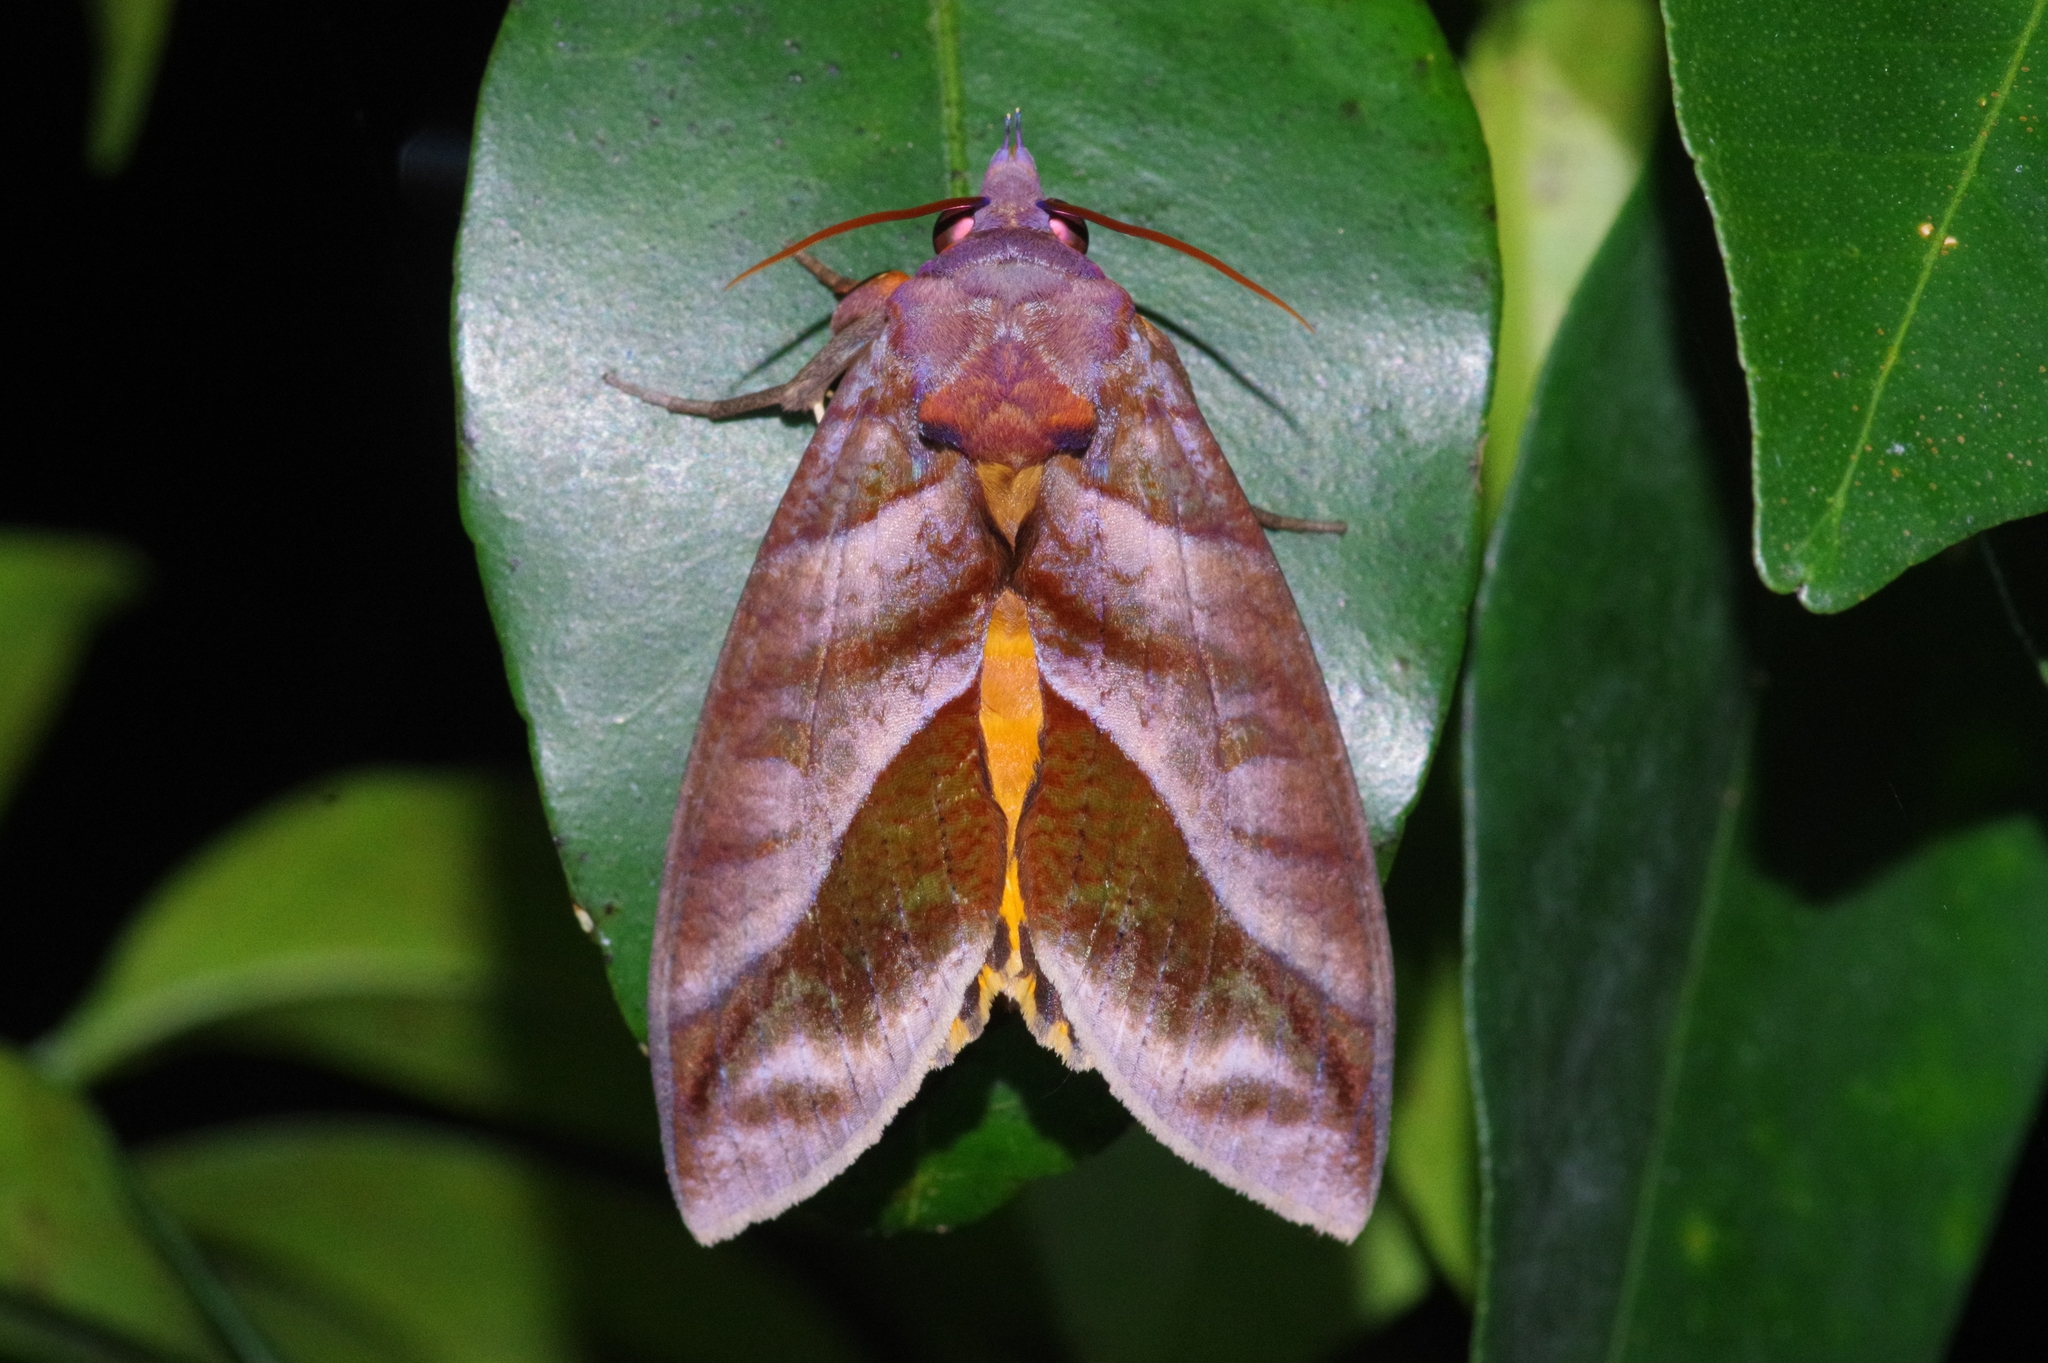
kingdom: Animalia
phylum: Arthropoda
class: Insecta
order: Lepidoptera
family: Erebidae
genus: Eudocima
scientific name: Eudocima homaena
